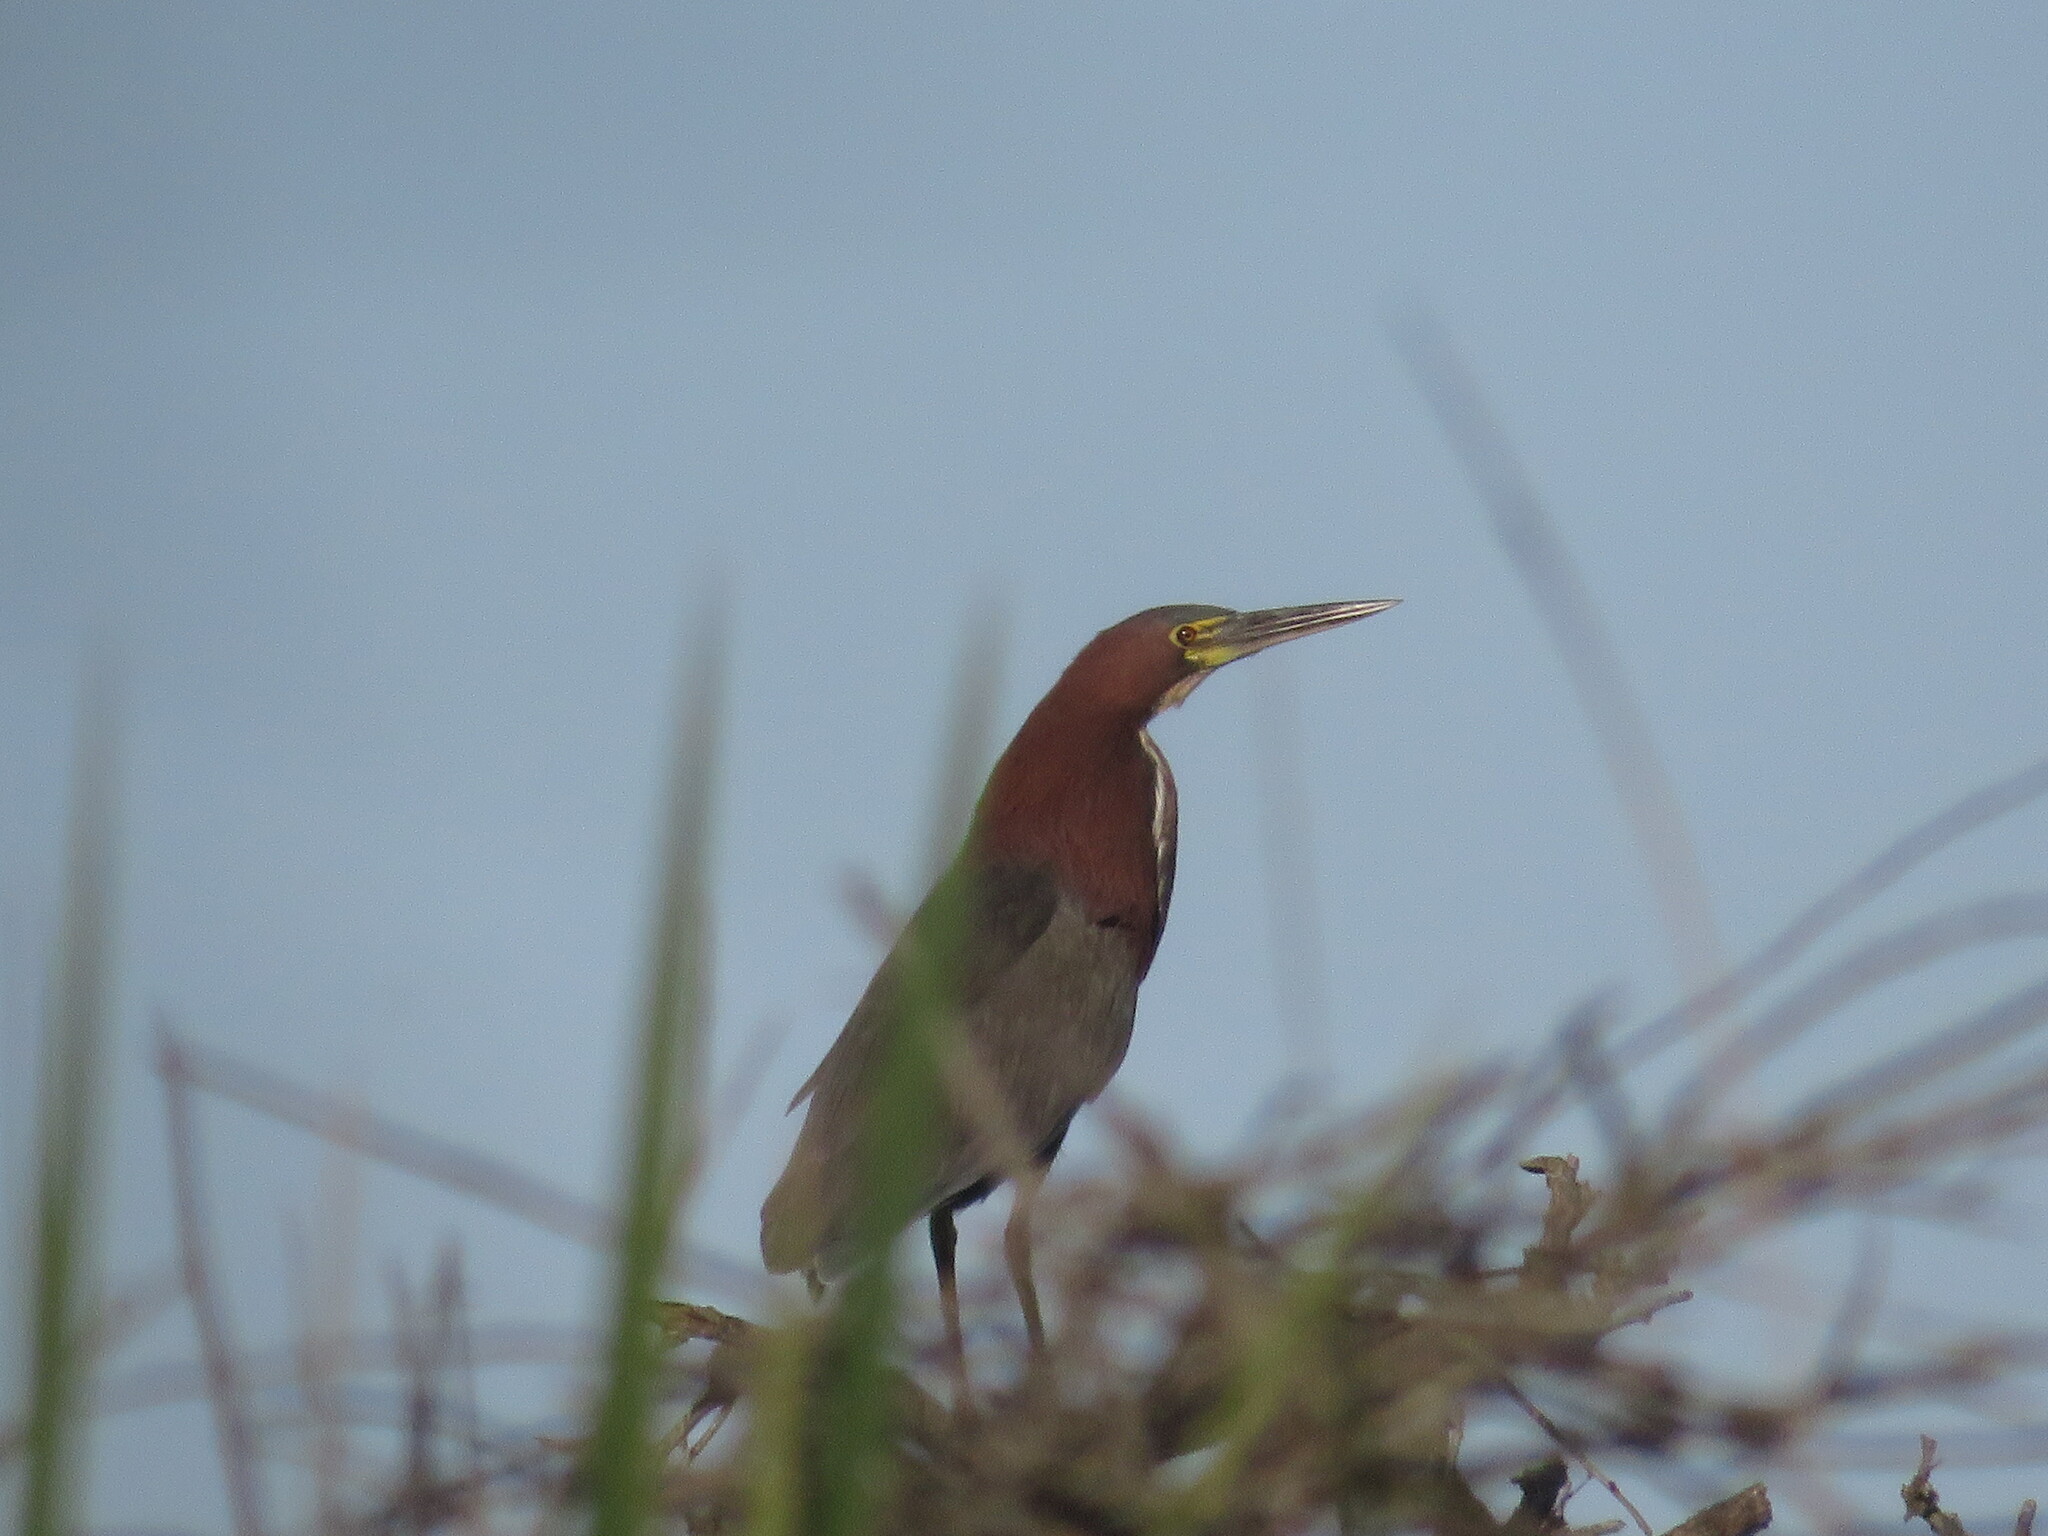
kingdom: Animalia
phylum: Chordata
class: Aves
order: Pelecaniformes
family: Ardeidae
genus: Tigrisoma
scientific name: Tigrisoma lineatum
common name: Rufescent tiger-heron
